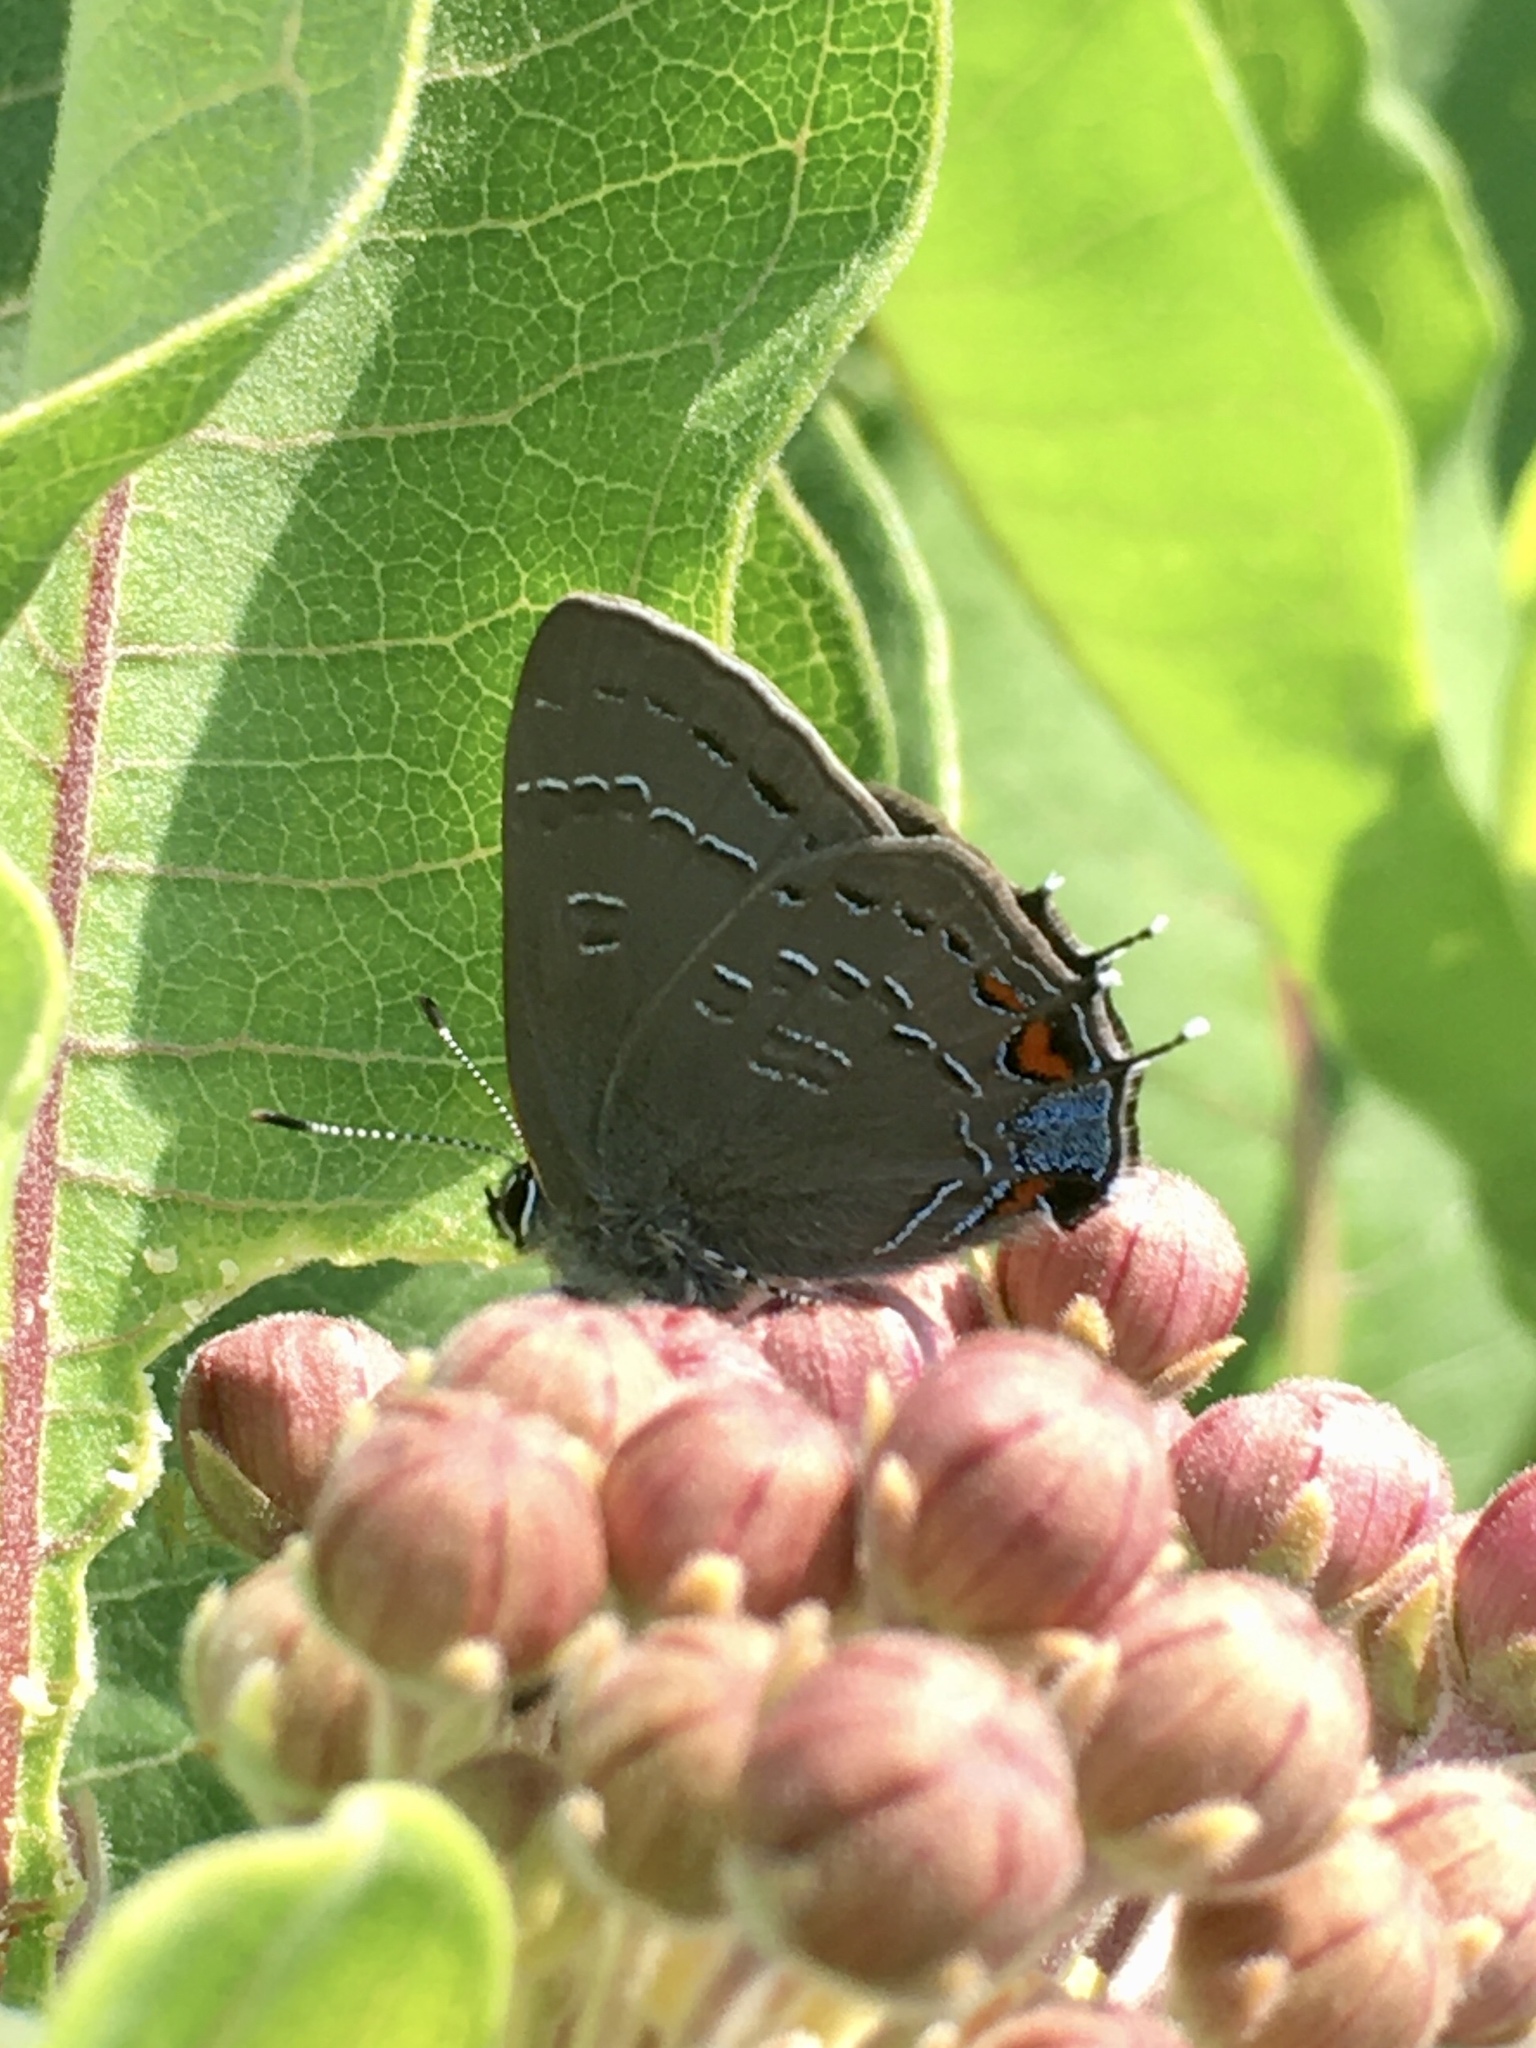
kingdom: Animalia
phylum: Arthropoda
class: Insecta
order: Lepidoptera
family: Lycaenidae
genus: Satyrium
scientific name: Satyrium calanus
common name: Banded hairstreak
